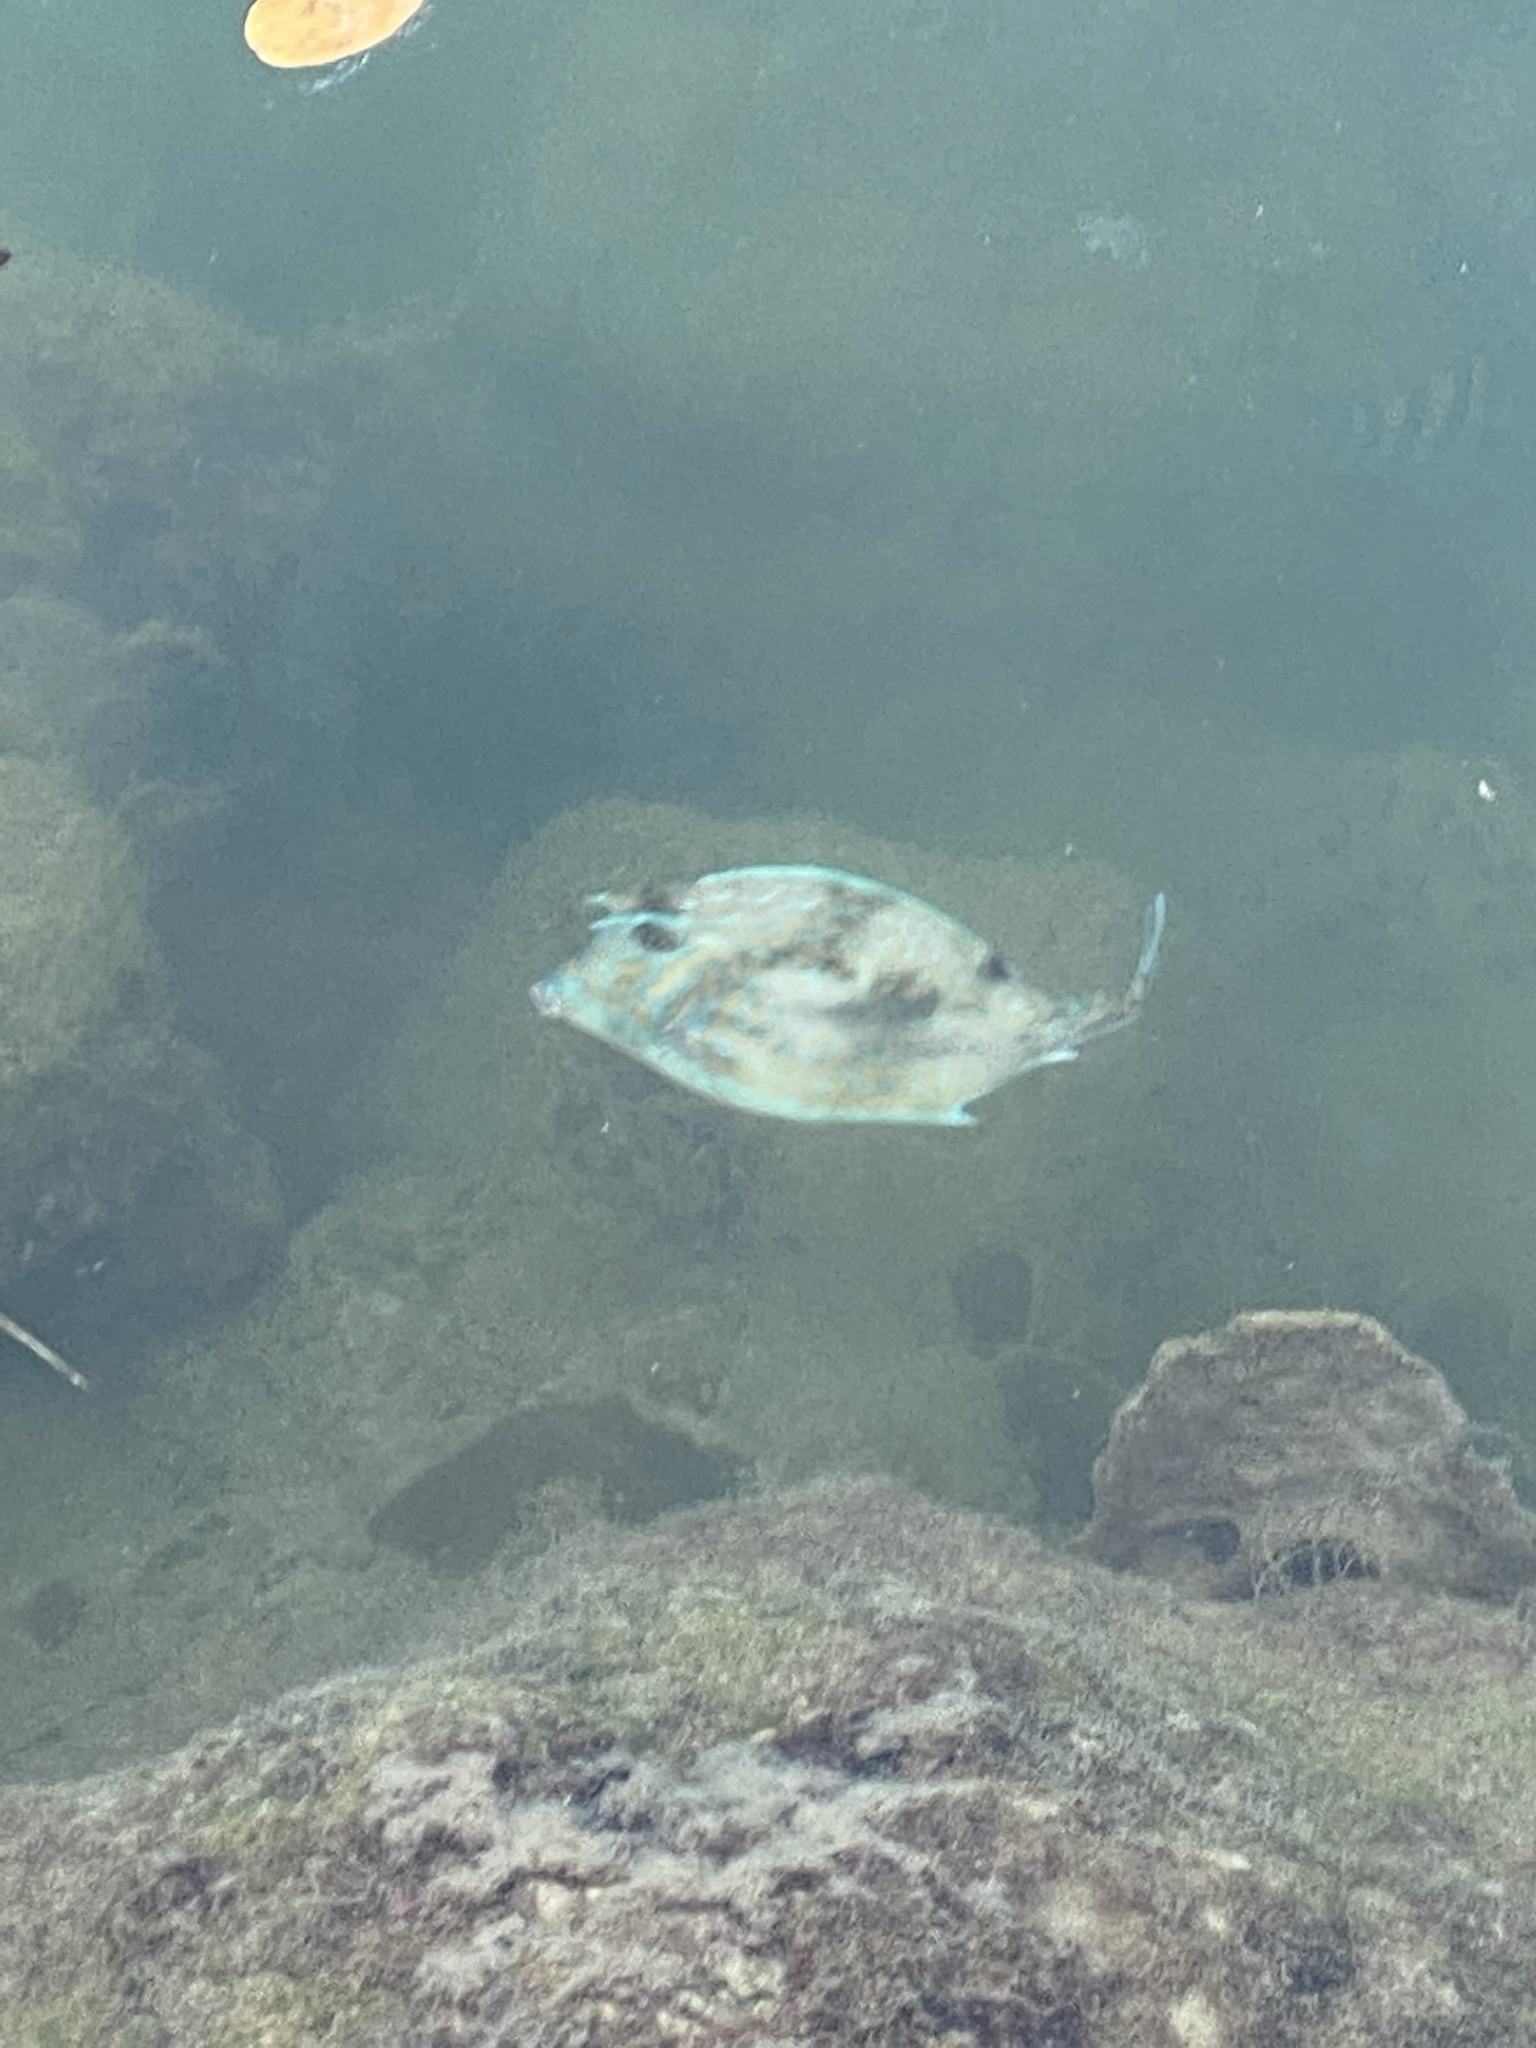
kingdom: Animalia
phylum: Chordata
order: Tetraodontiformes
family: Ostraciidae
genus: Acanthostracion
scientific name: Acanthostracion quadricornis
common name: Scrawled cowfish
